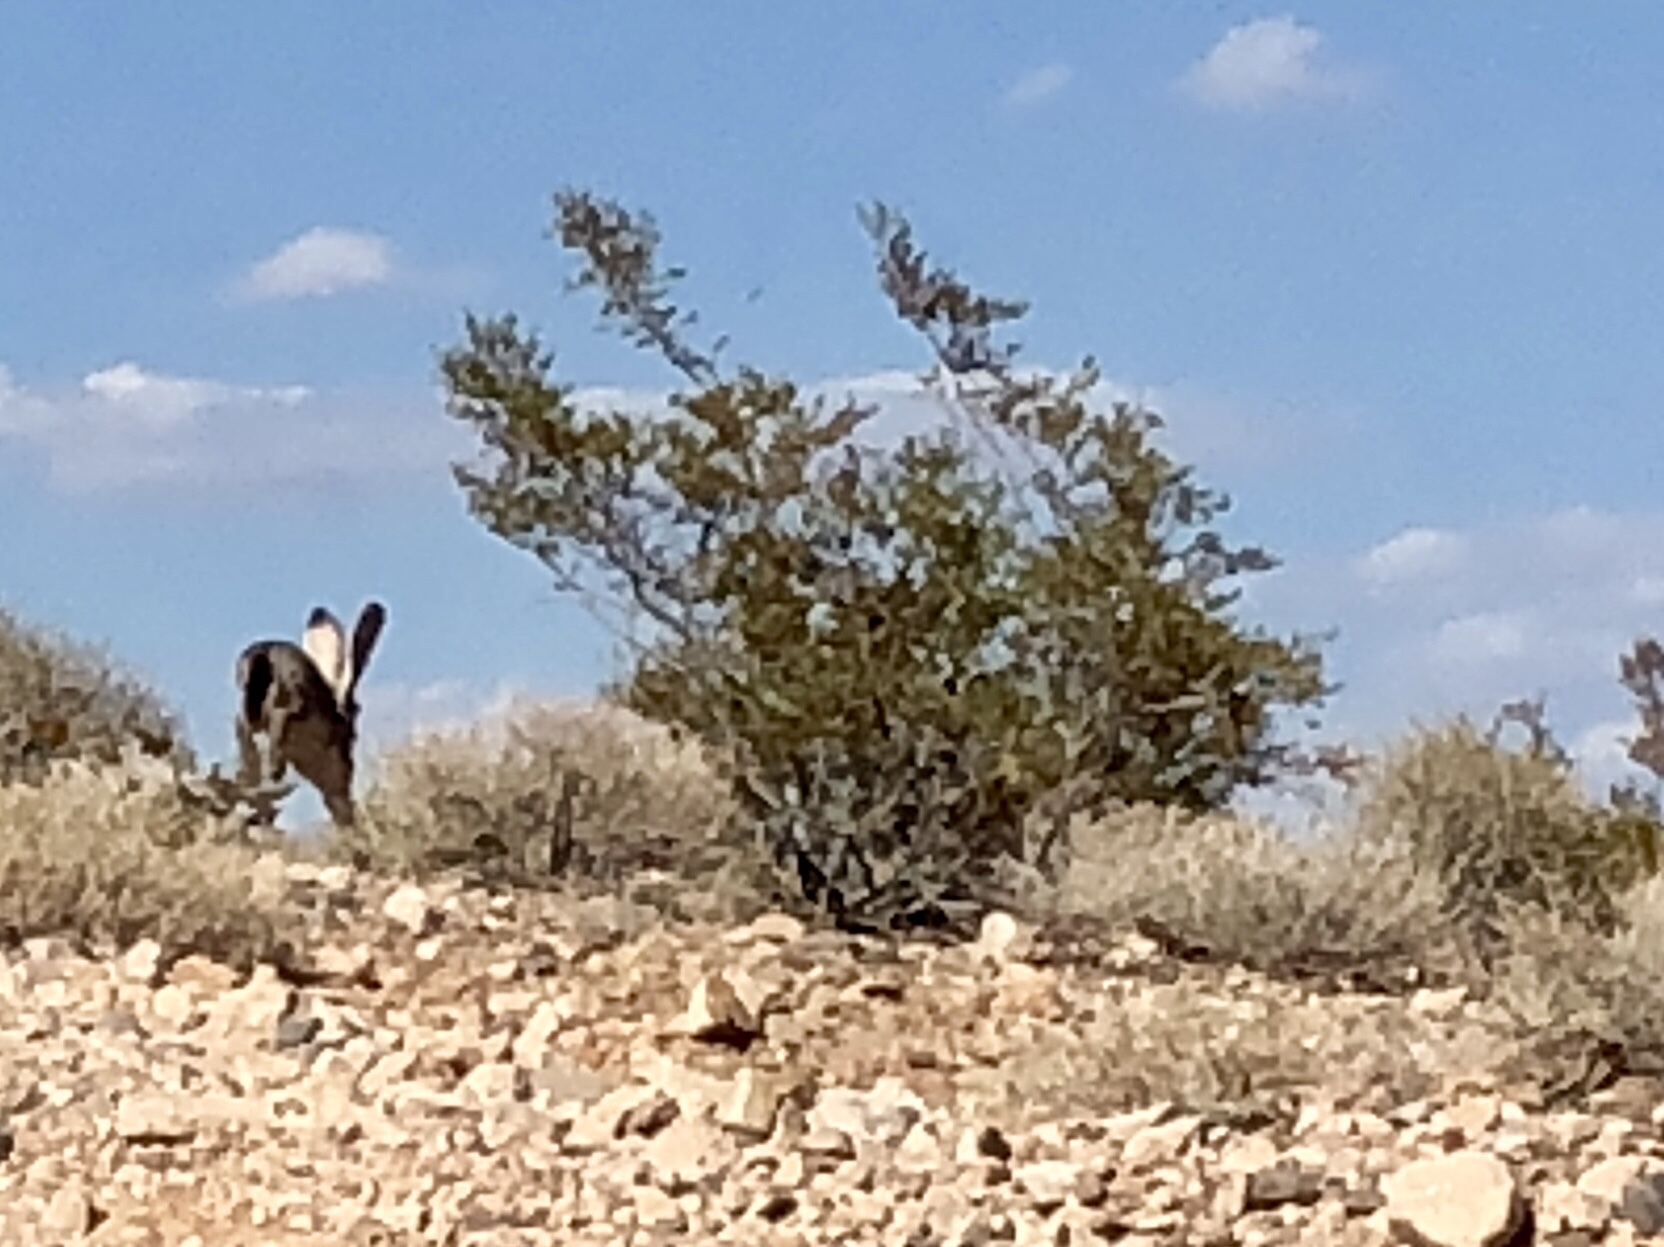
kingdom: Plantae
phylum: Tracheophyta
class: Magnoliopsida
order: Zygophyllales
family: Zygophyllaceae
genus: Larrea
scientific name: Larrea tridentata
